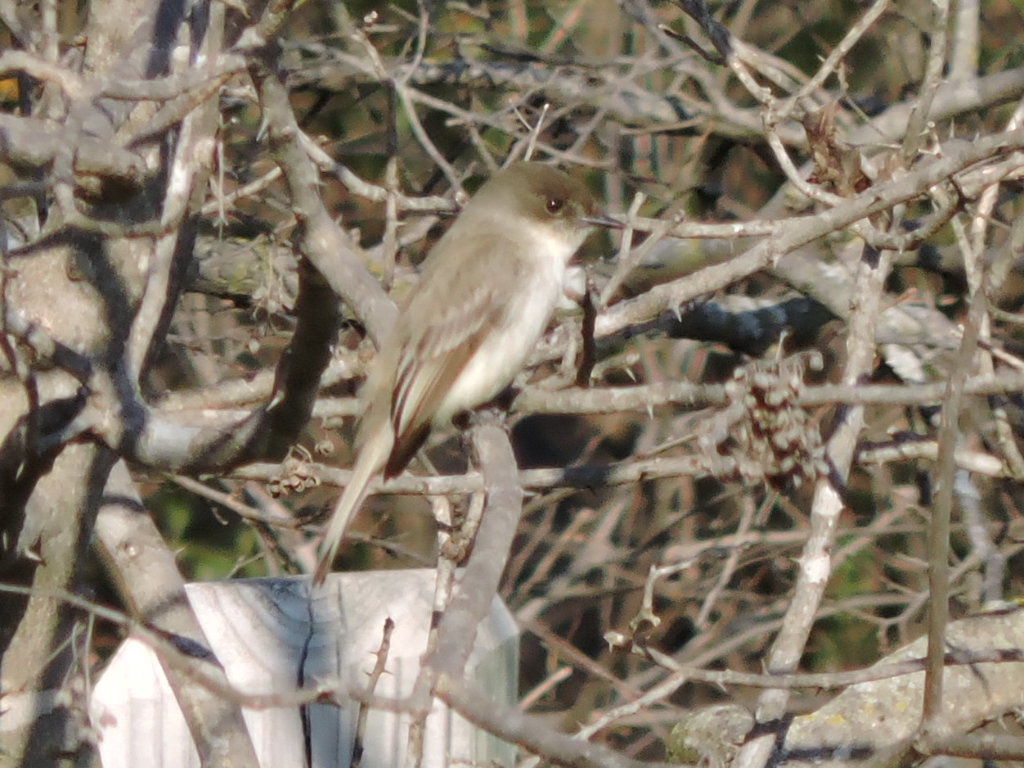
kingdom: Animalia
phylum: Chordata
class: Aves
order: Passeriformes
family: Tyrannidae
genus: Sayornis
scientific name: Sayornis phoebe
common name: Eastern phoebe
